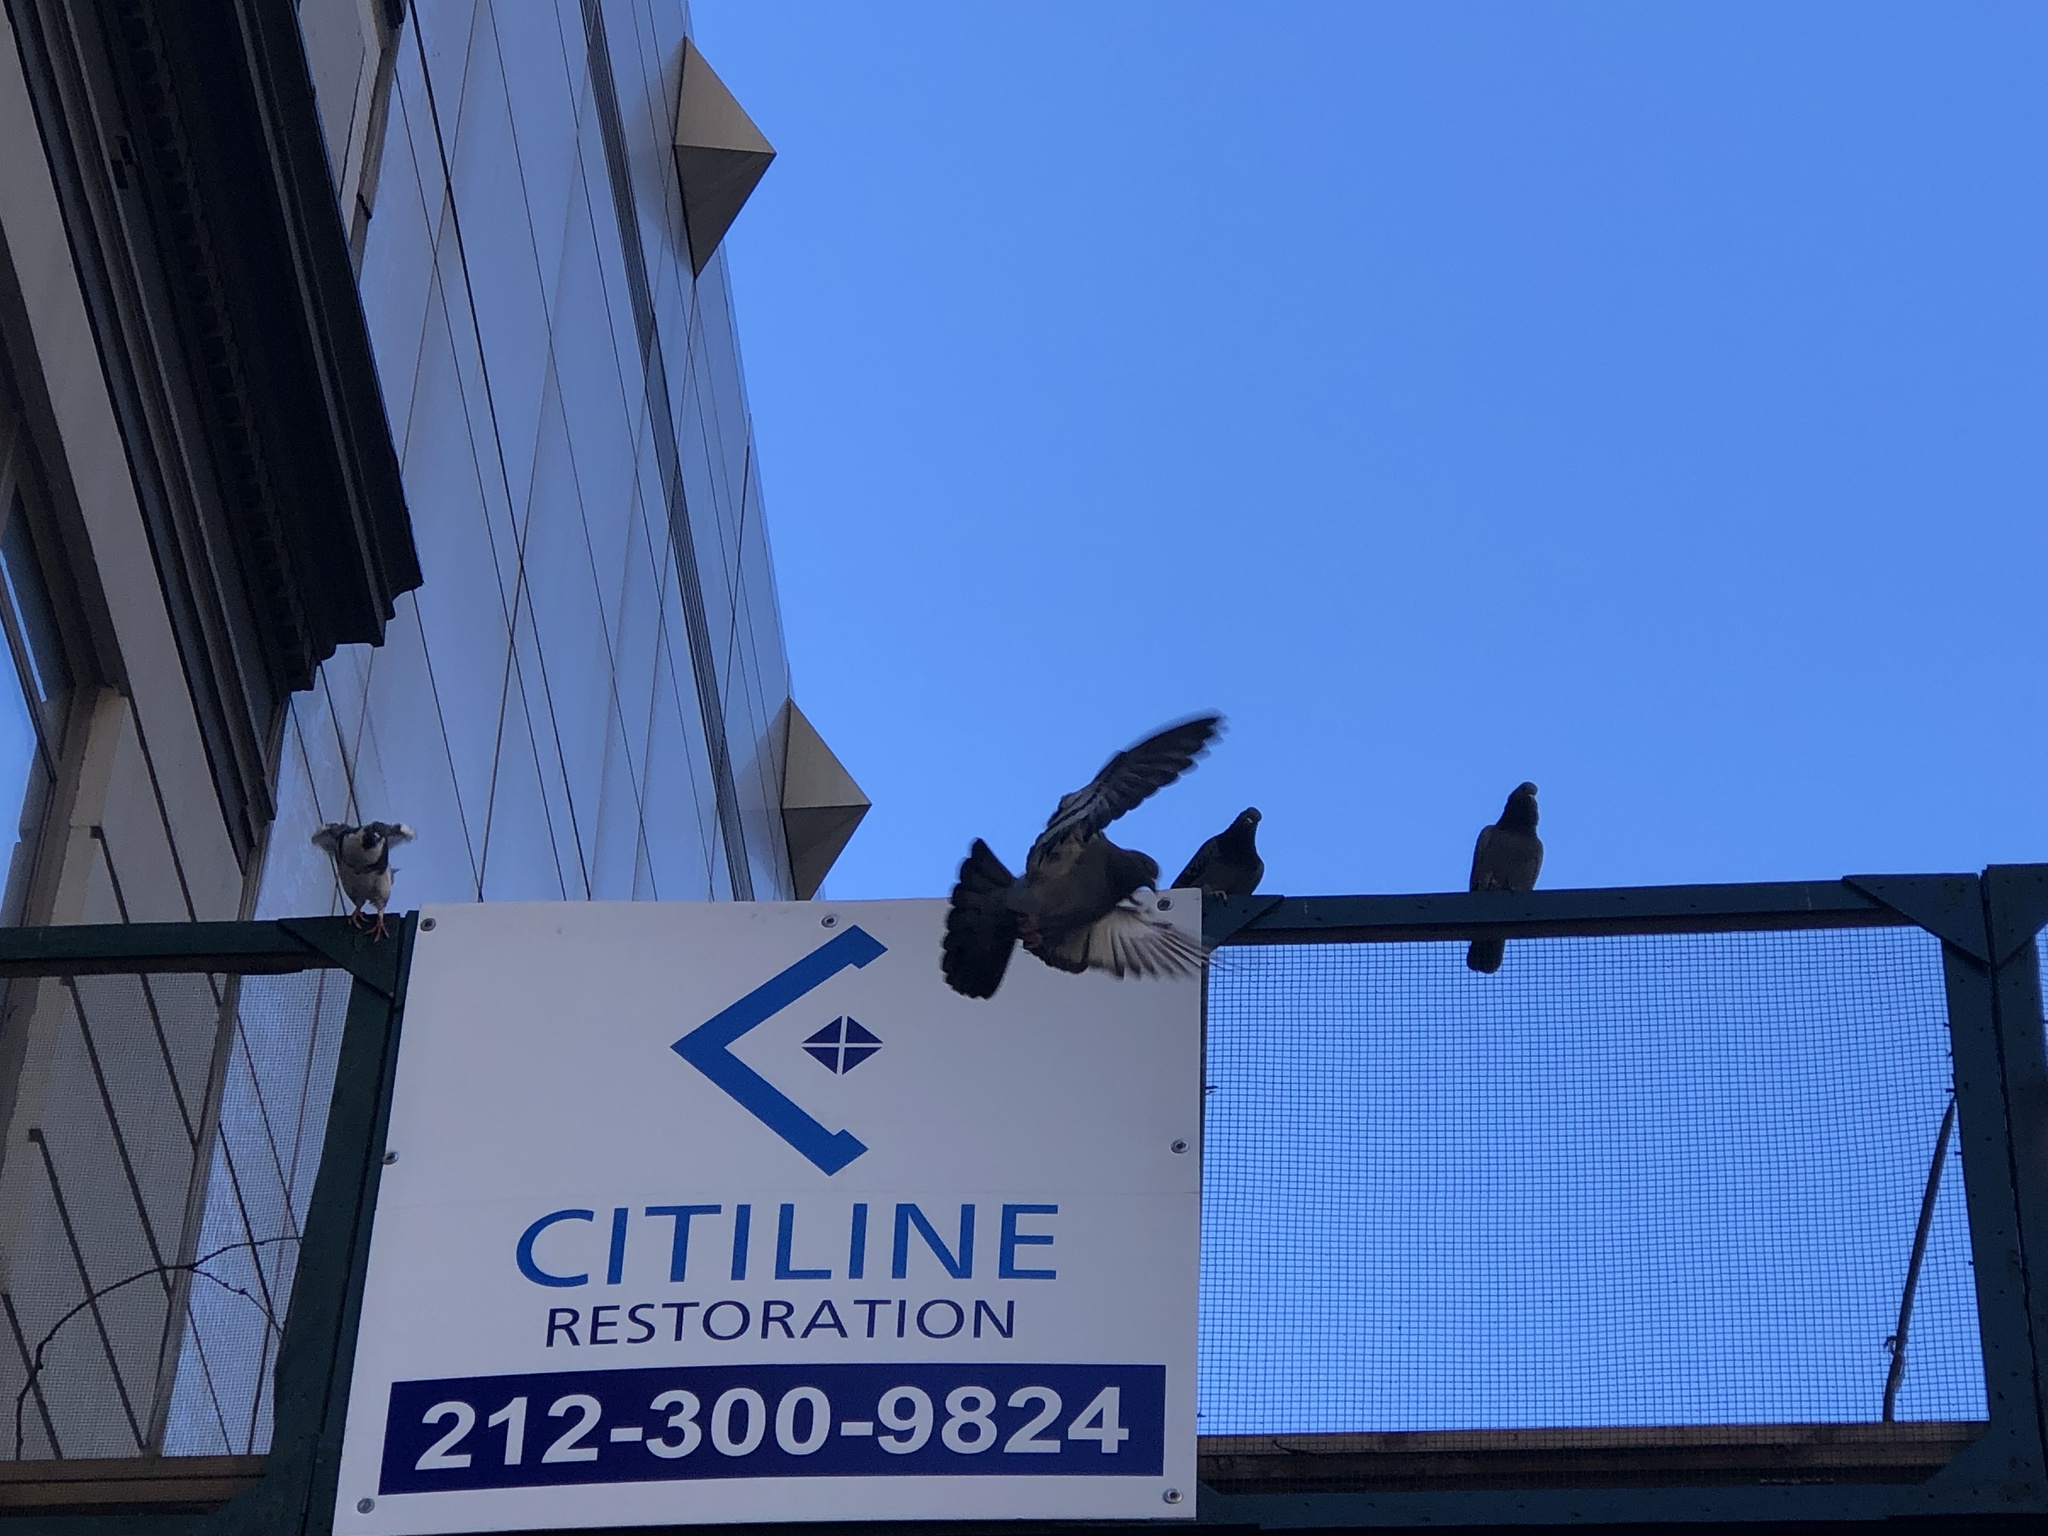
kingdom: Animalia
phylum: Chordata
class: Aves
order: Columbiformes
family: Columbidae
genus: Columba
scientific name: Columba livia
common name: Rock pigeon
